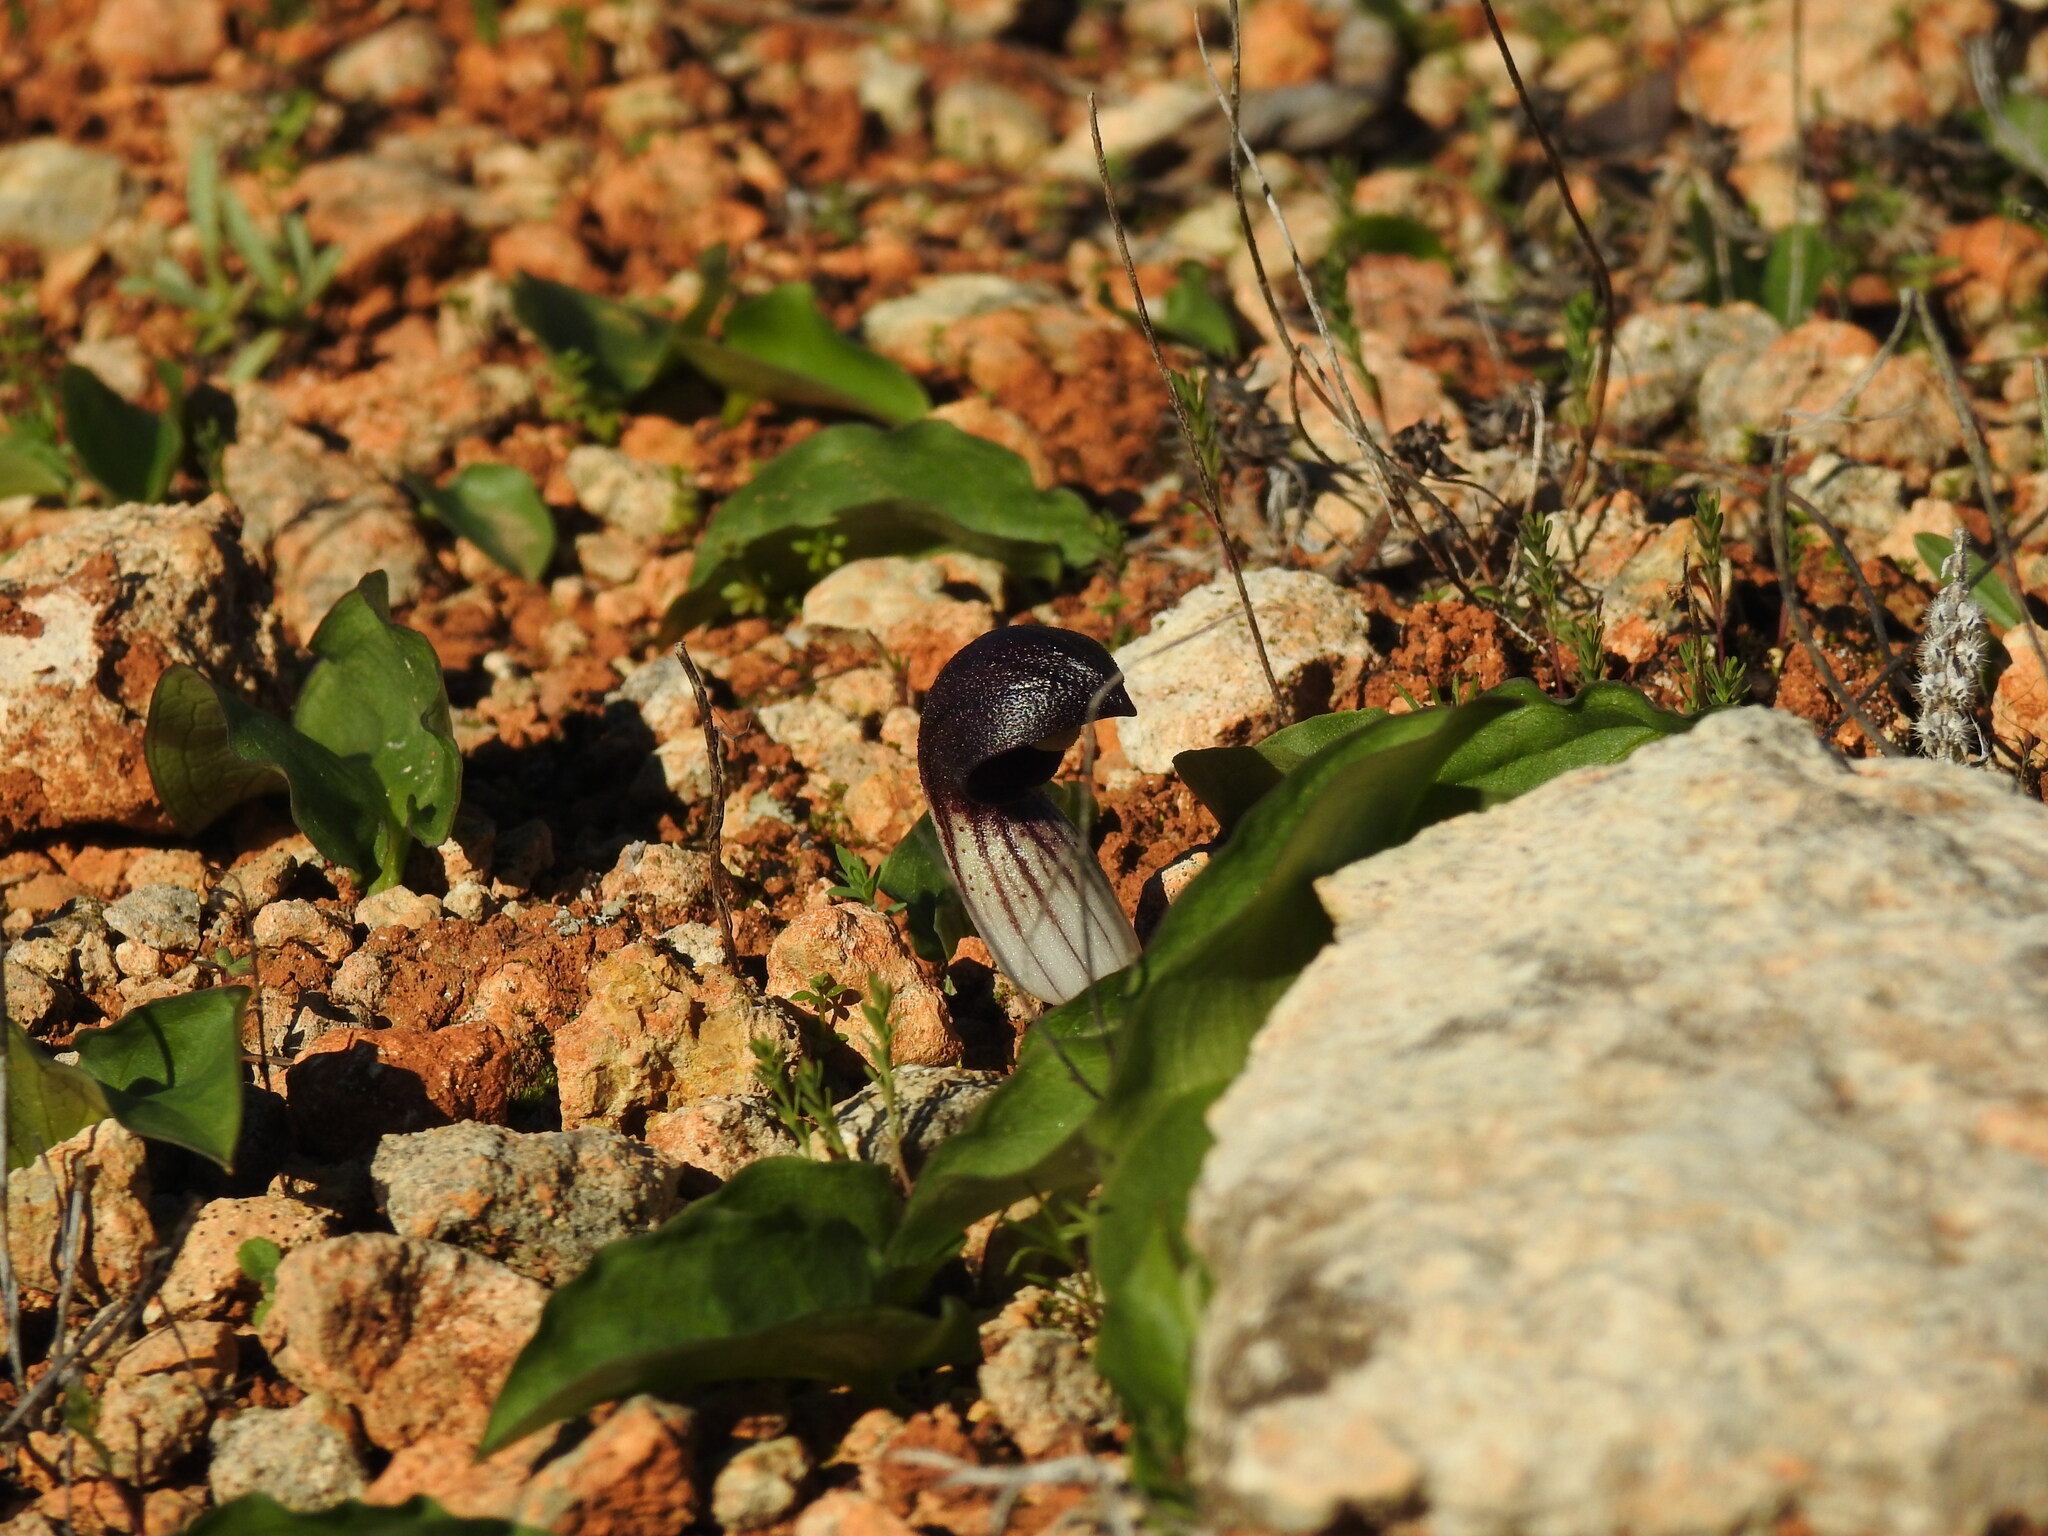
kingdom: Plantae
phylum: Tracheophyta
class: Liliopsida
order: Alismatales
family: Araceae
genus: Arisarum
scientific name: Arisarum simorrhinum
